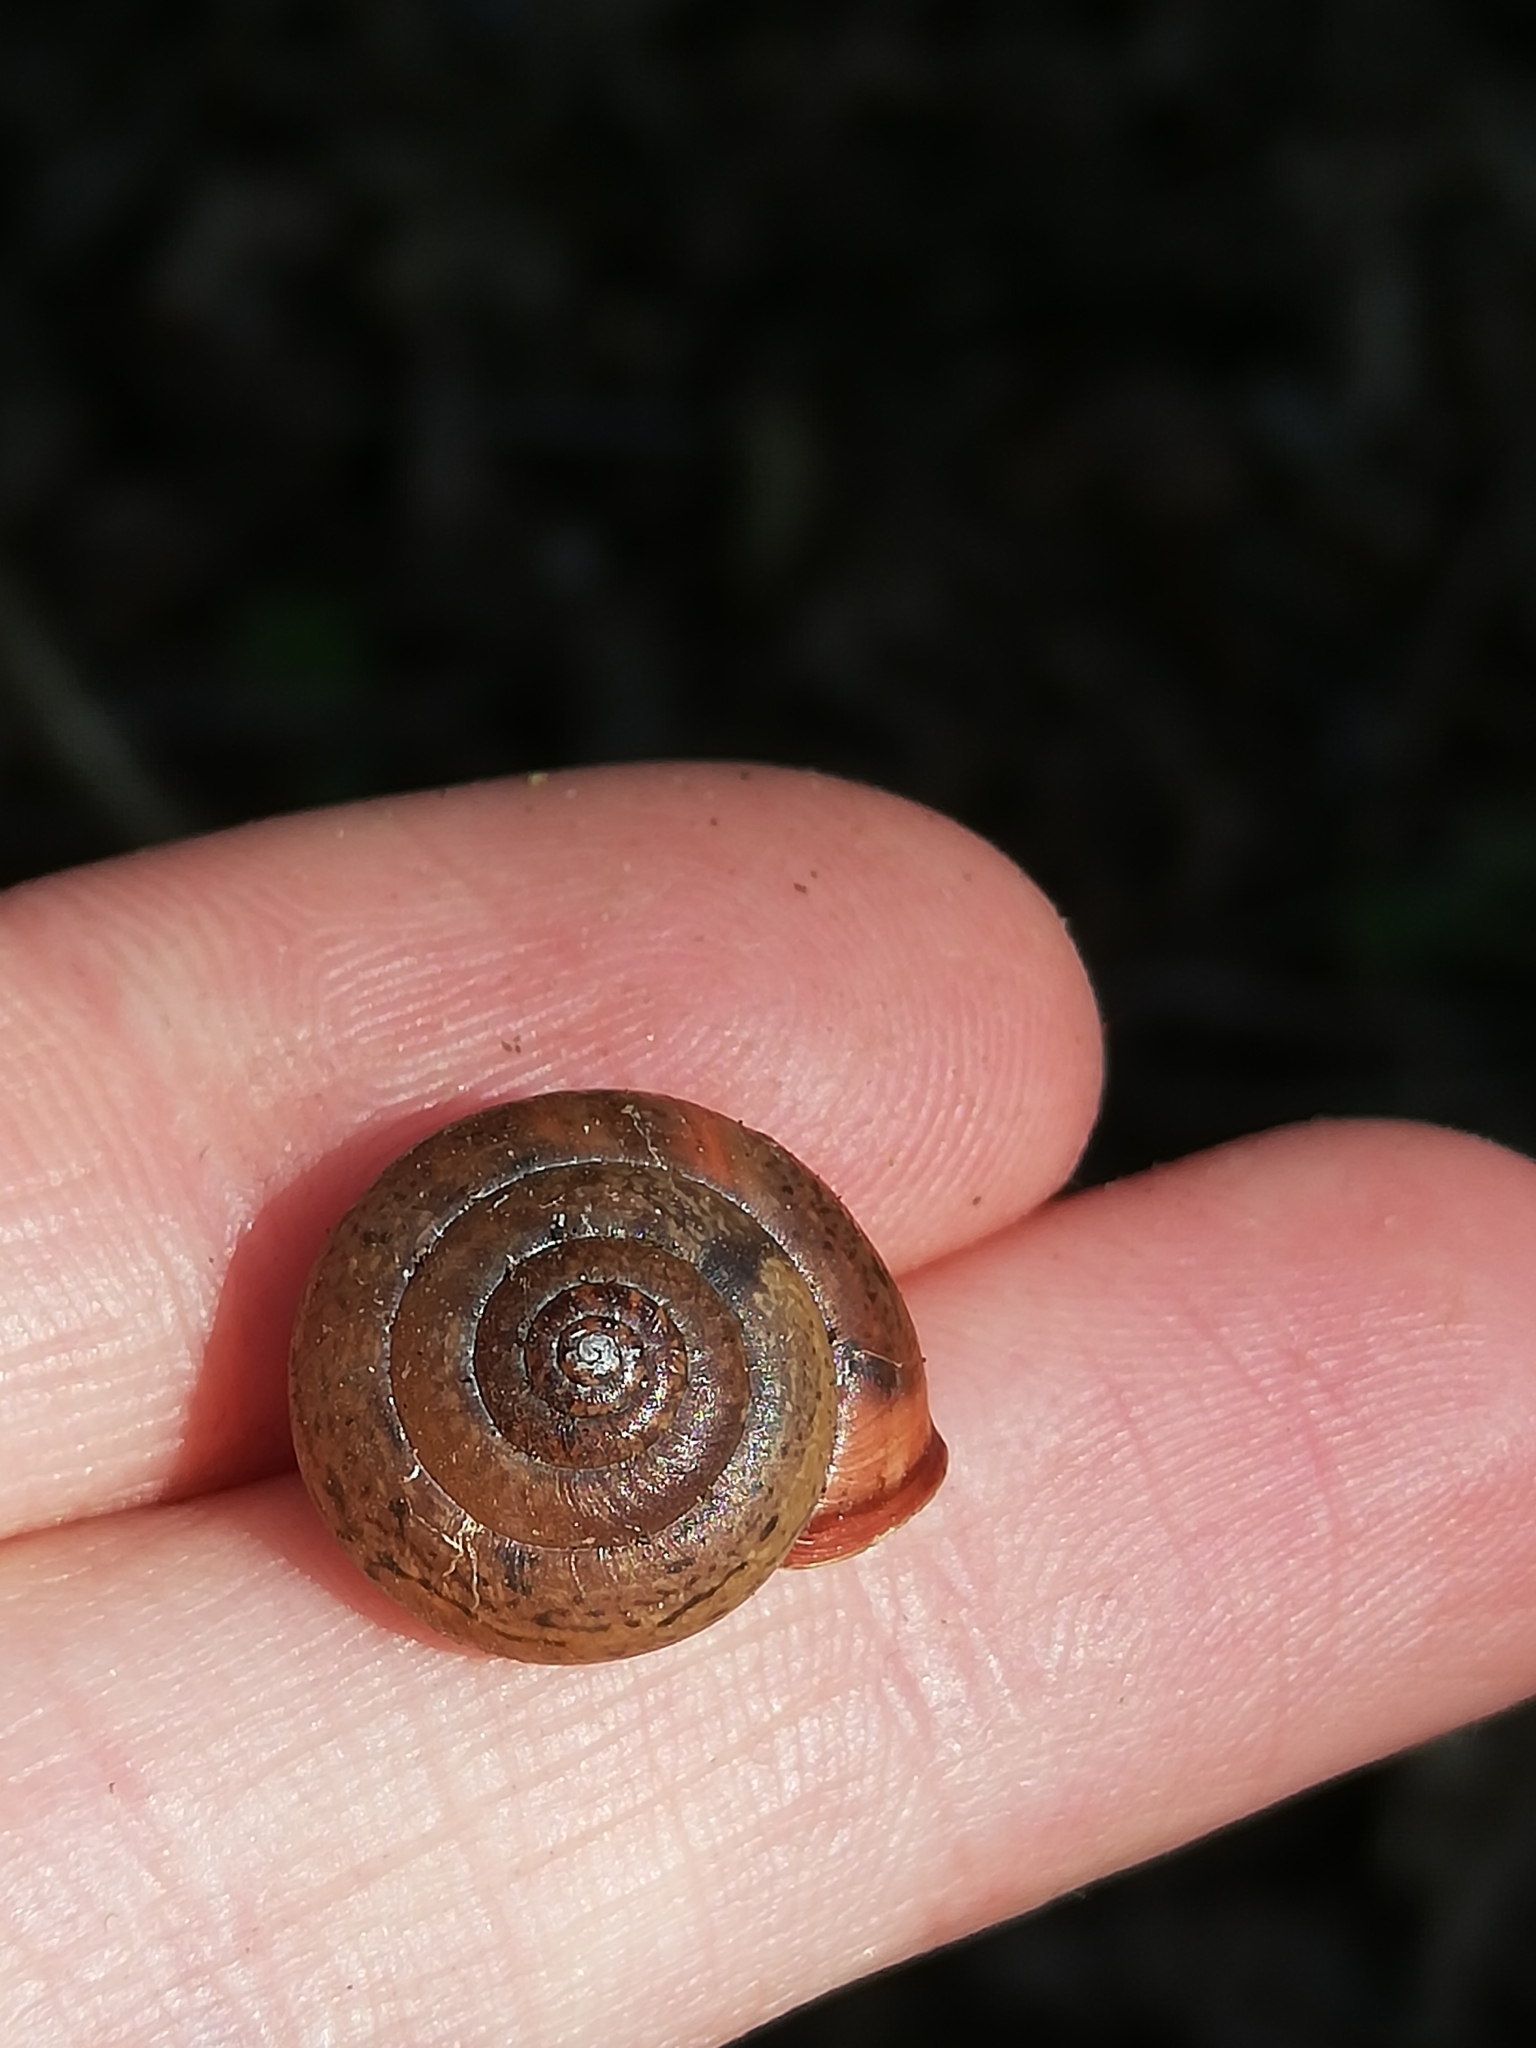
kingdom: Animalia
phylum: Mollusca
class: Gastropoda
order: Stylommatophora
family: Hygromiidae
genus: Monachoides
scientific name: Monachoides incarnatus
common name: Incarnate snail
